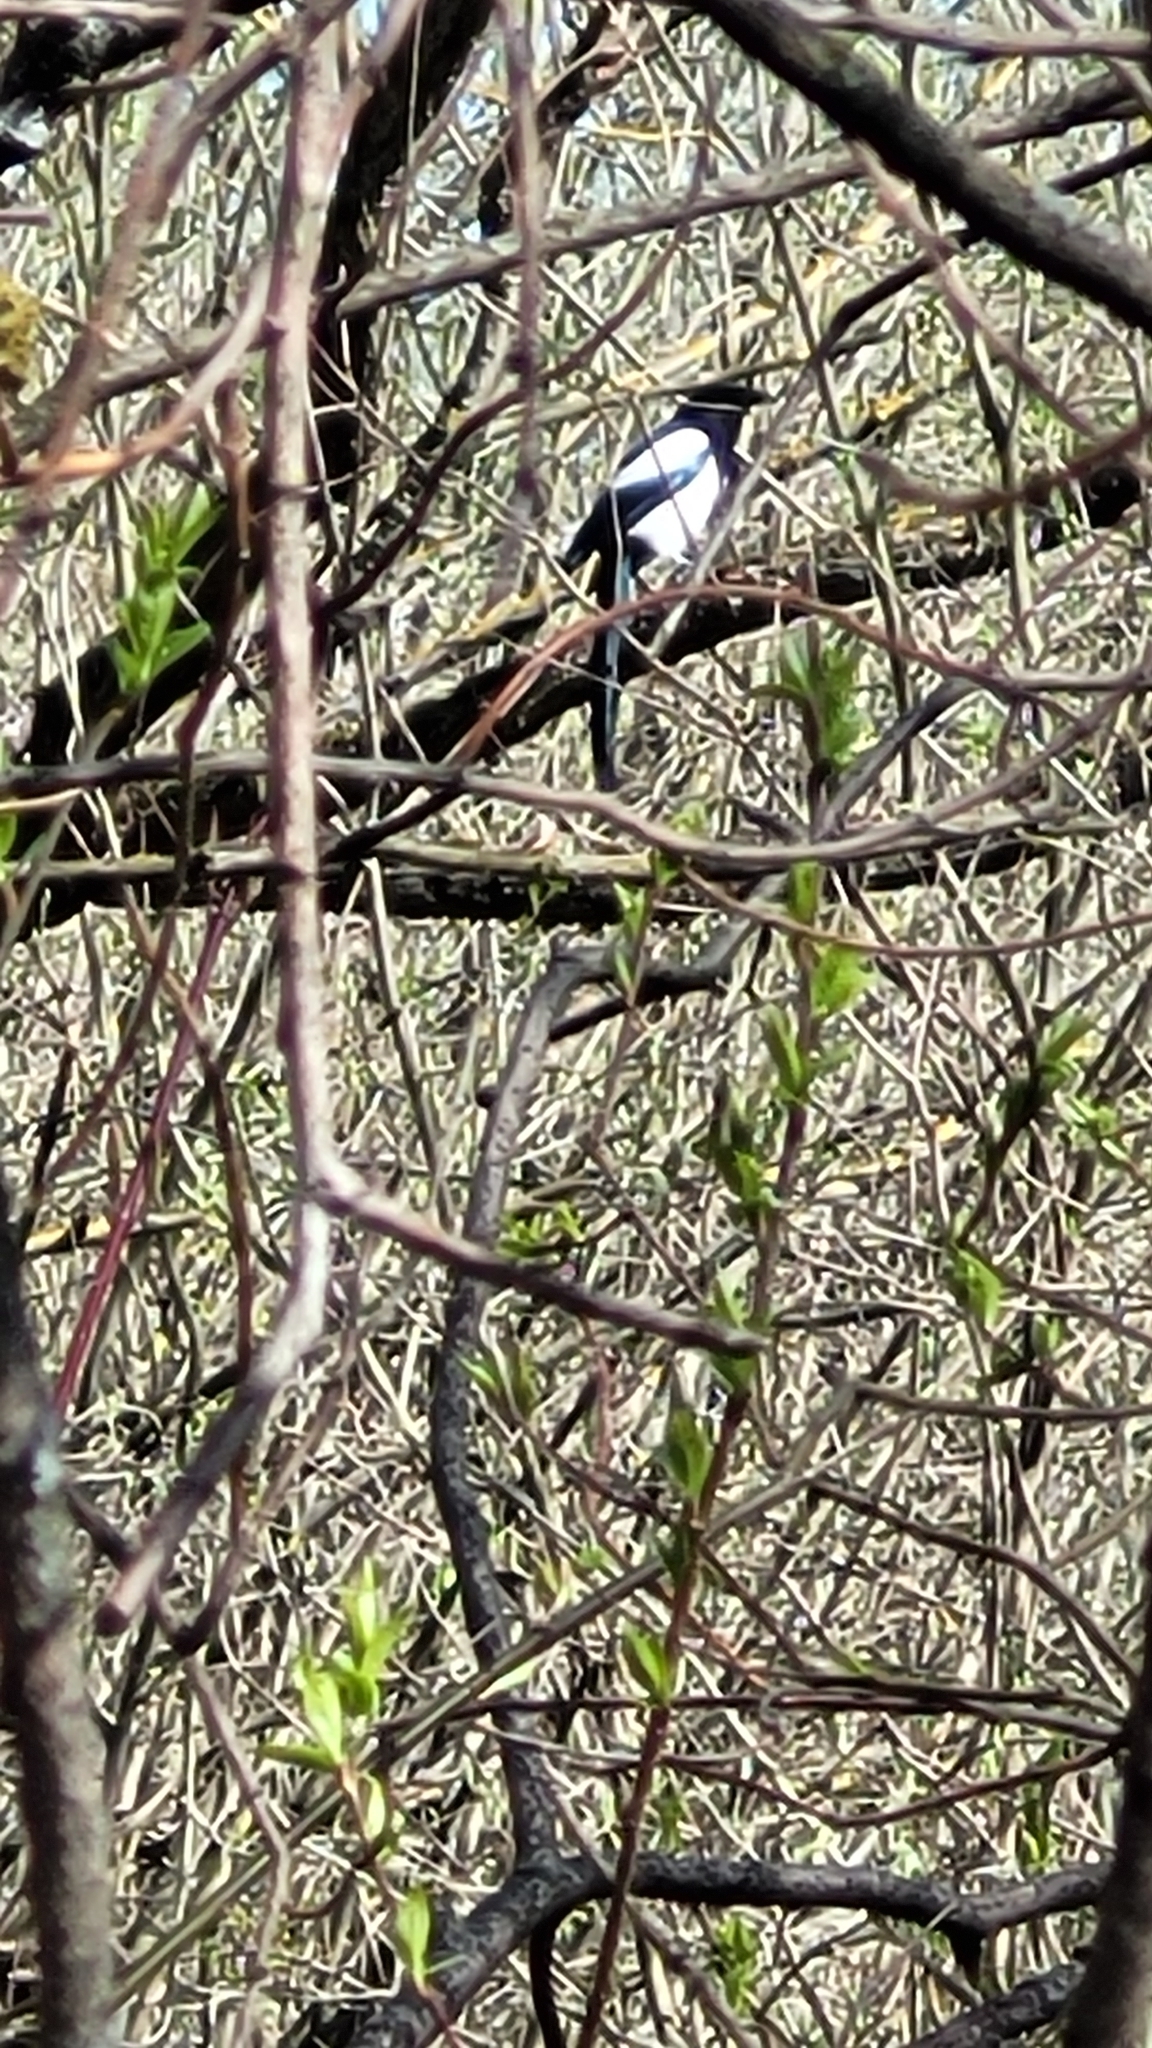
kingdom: Animalia
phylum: Chordata
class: Aves
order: Passeriformes
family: Corvidae
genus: Pica
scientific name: Pica pica
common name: Eurasian magpie
